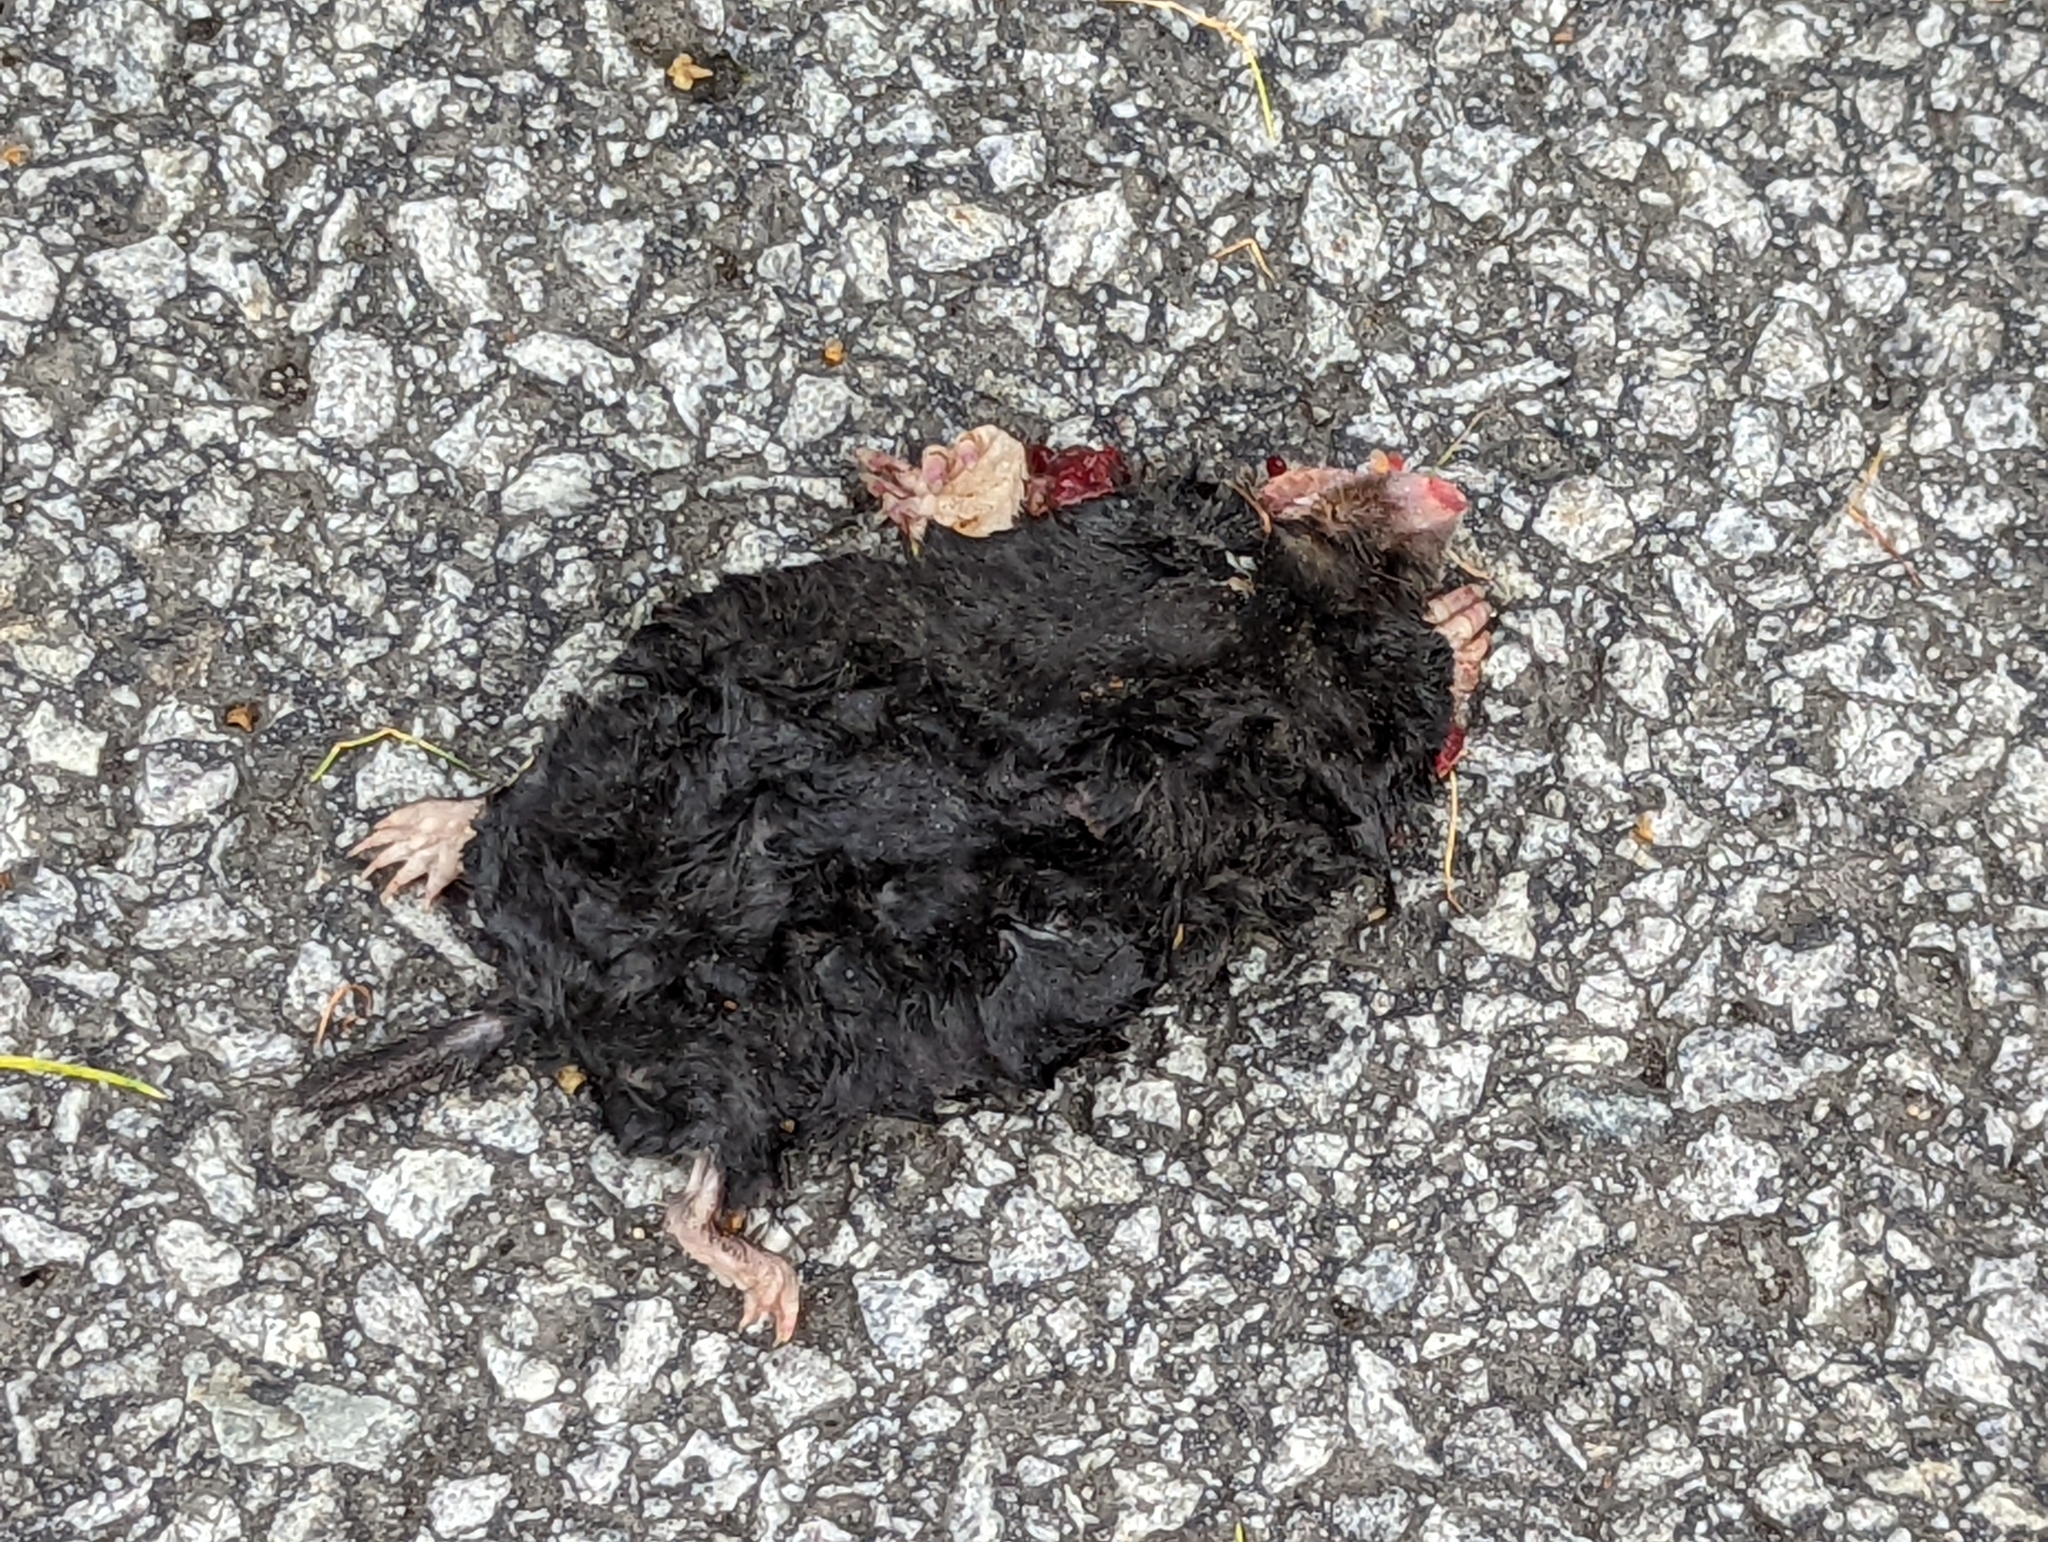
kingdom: Animalia
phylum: Chordata
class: Mammalia
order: Soricomorpha
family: Talpidae
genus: Talpa
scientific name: Talpa europaea
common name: European mole
